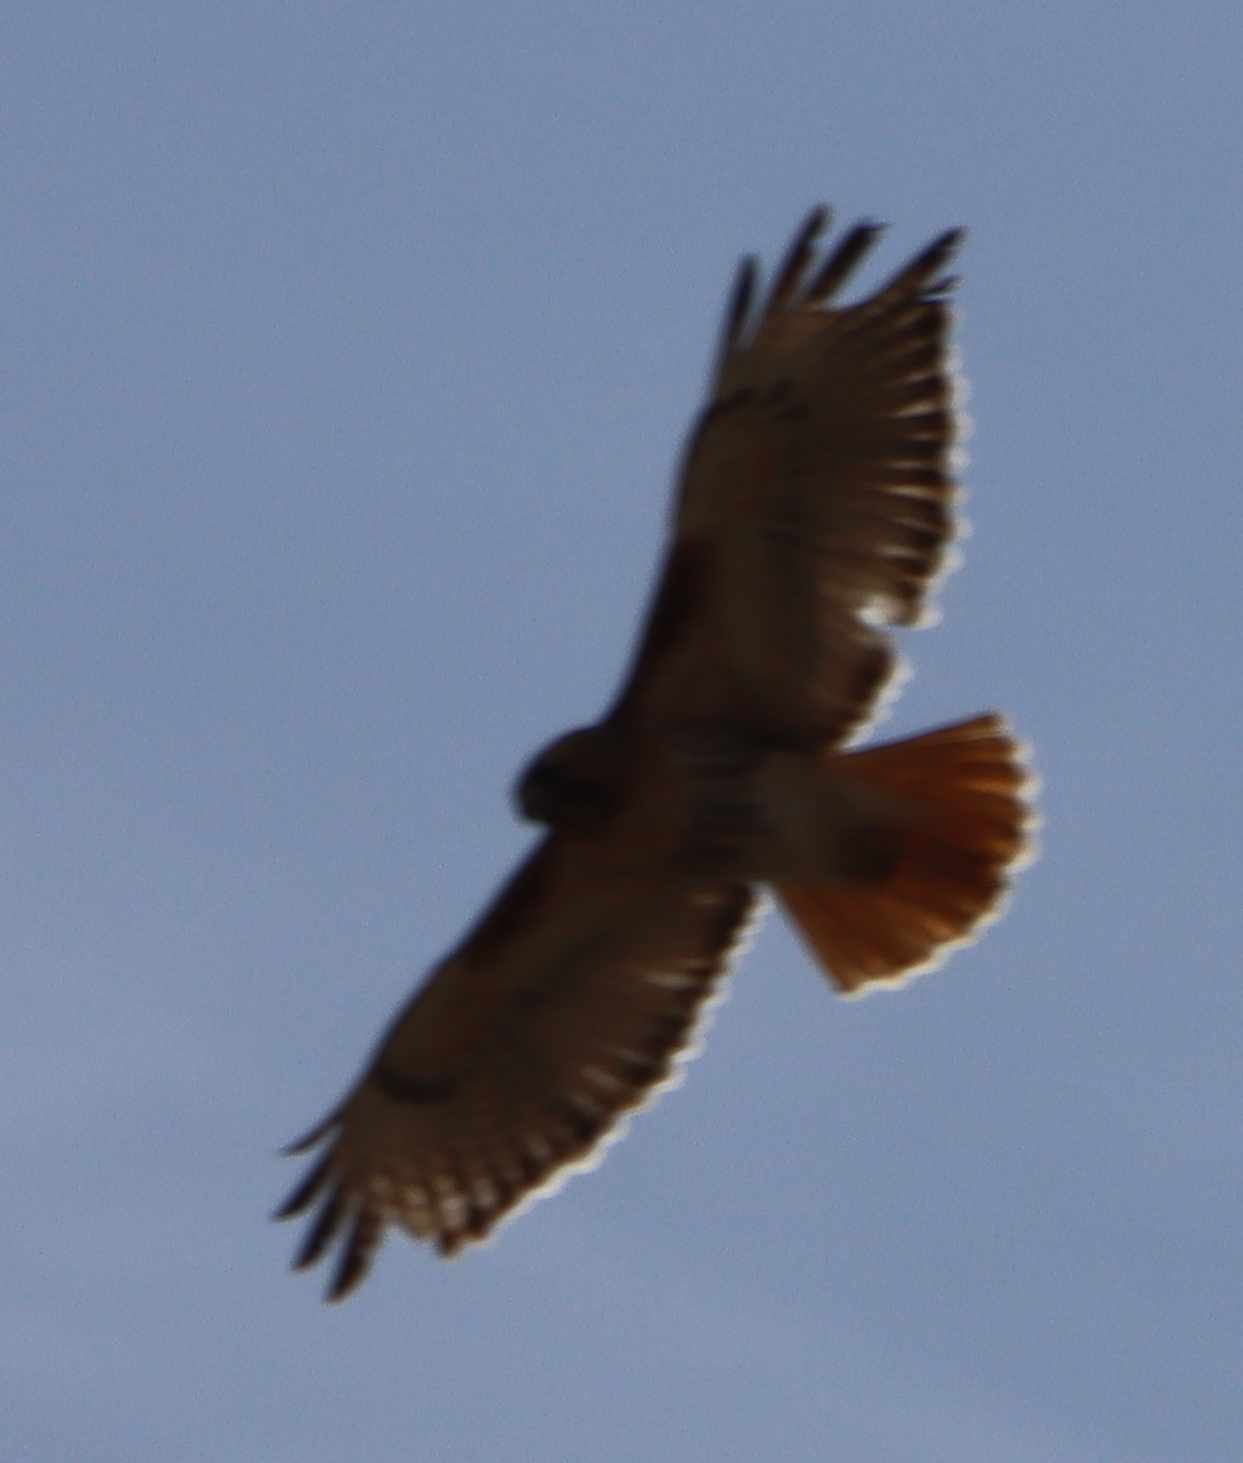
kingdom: Animalia
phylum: Chordata
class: Aves
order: Accipitriformes
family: Accipitridae
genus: Buteo
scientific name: Buteo jamaicensis
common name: Red-tailed hawk
